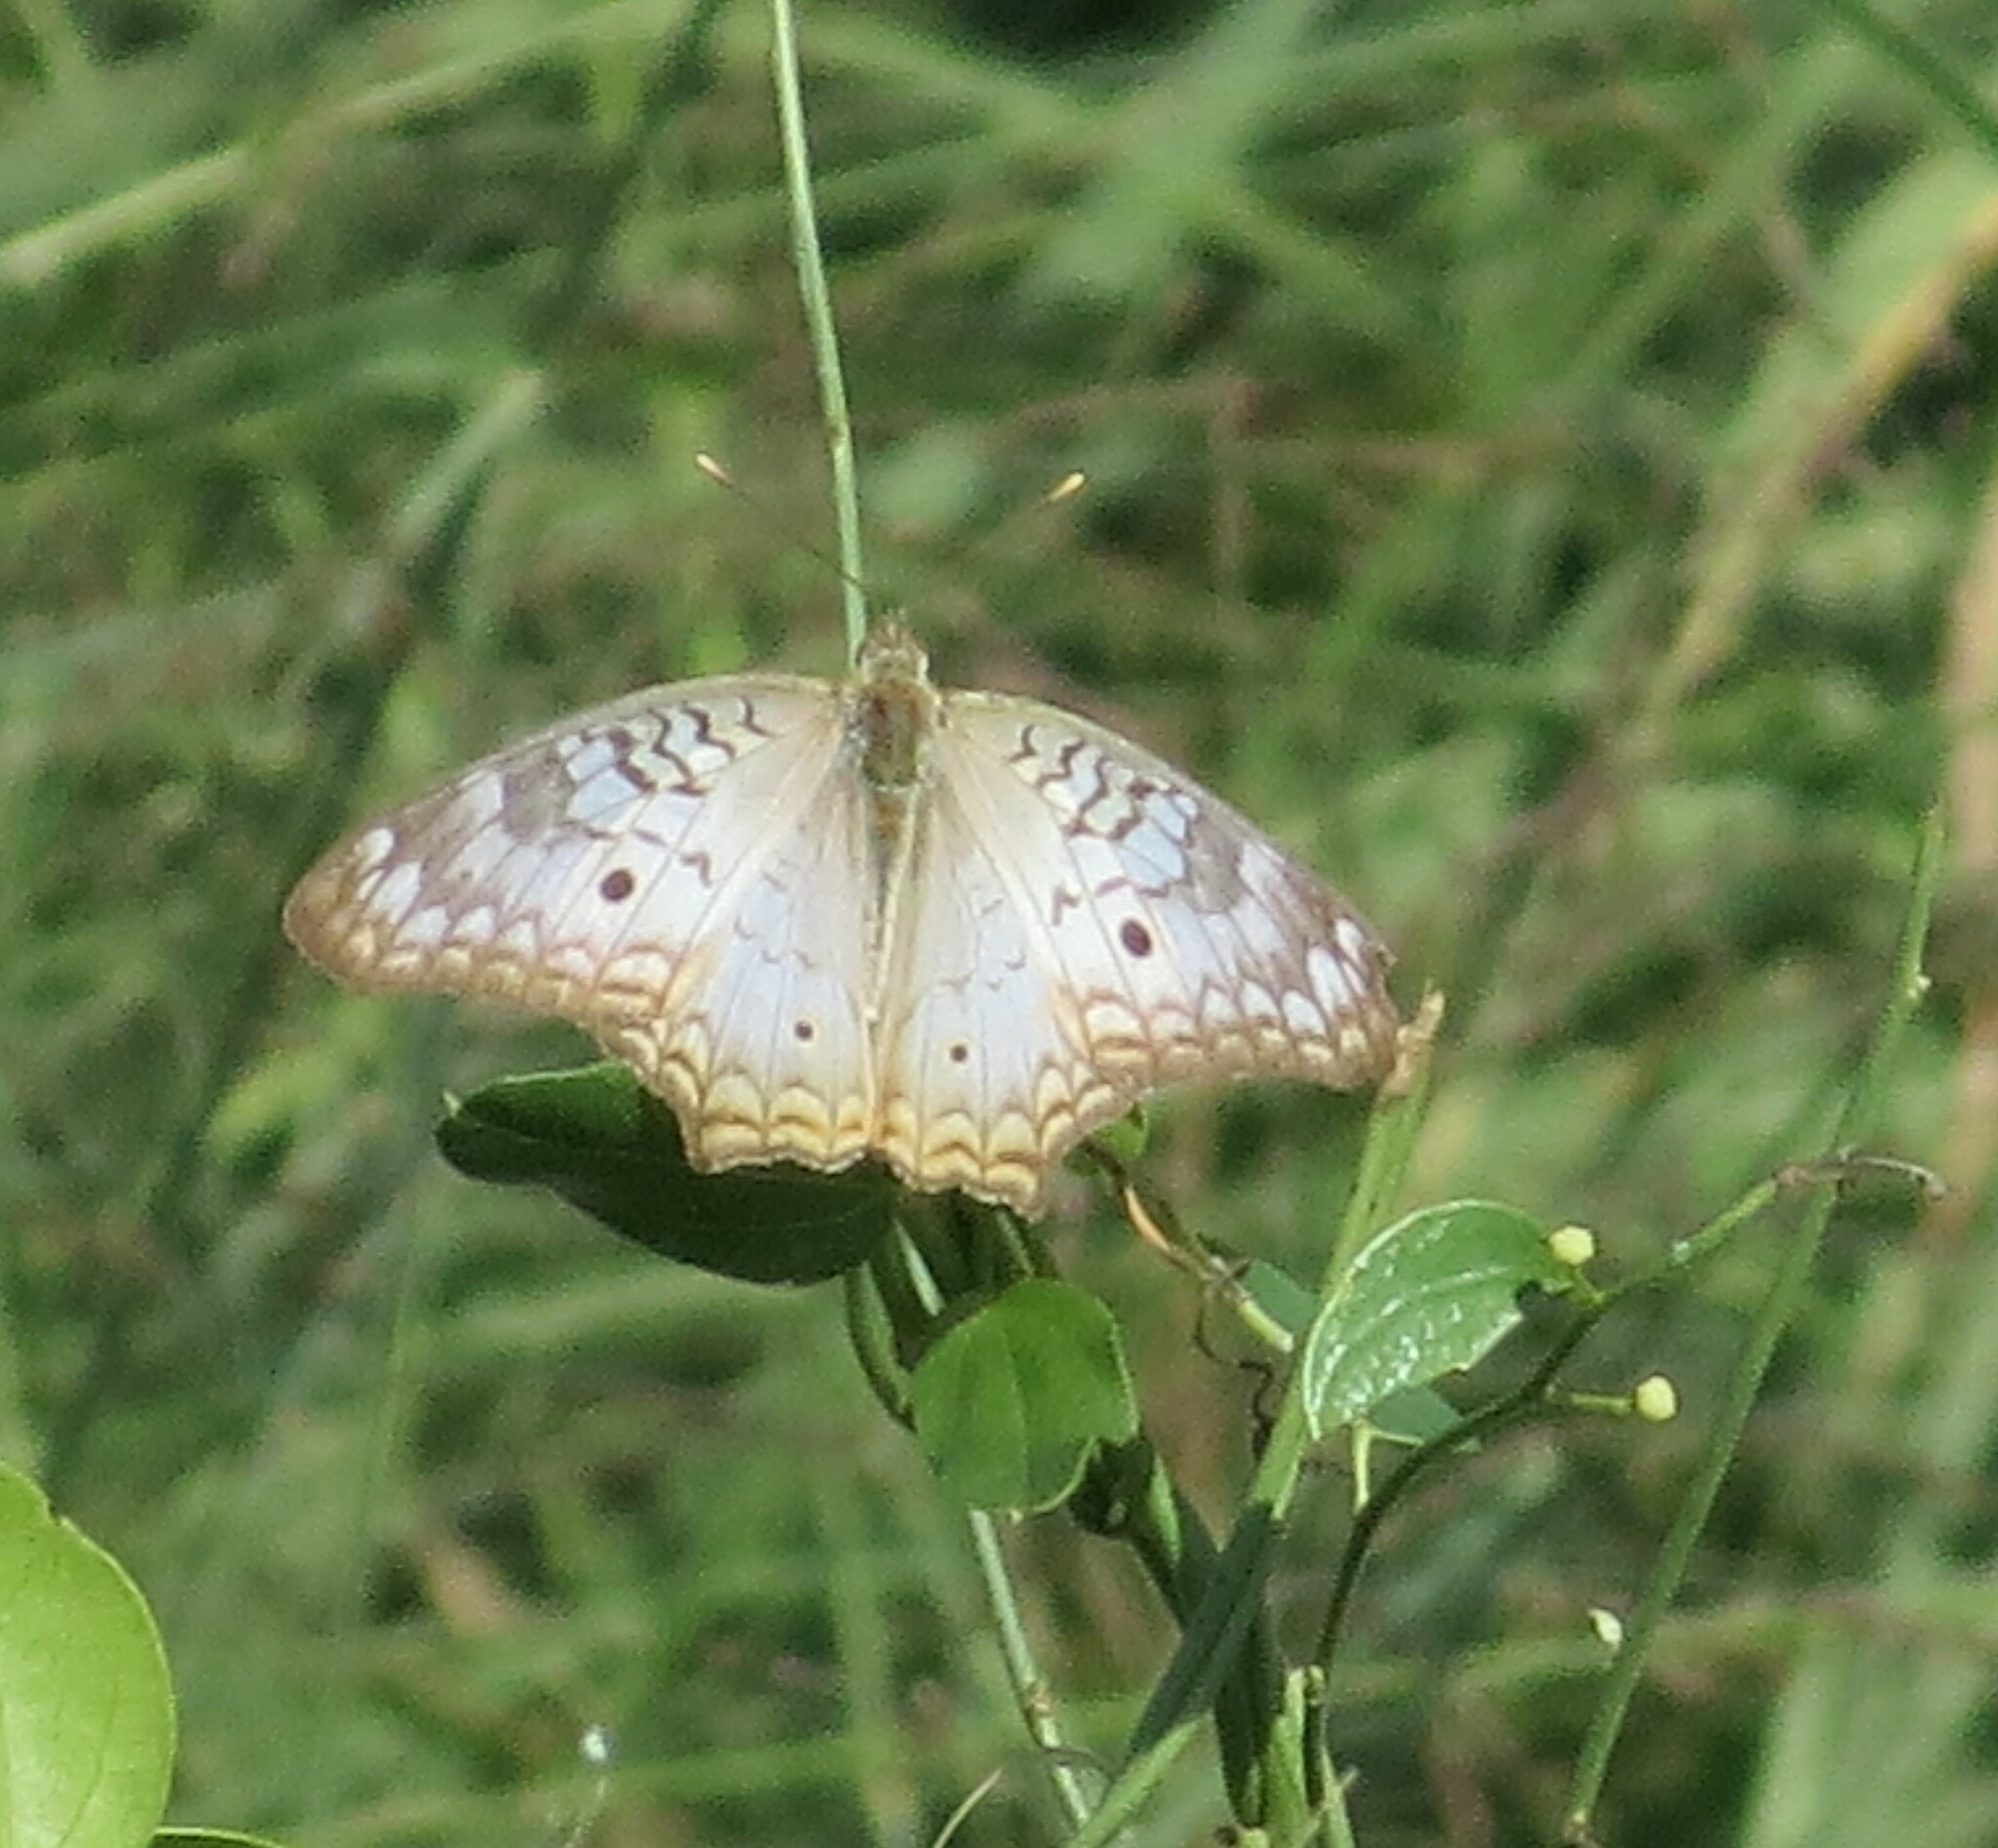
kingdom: Animalia
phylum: Arthropoda
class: Insecta
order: Lepidoptera
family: Nymphalidae
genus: Anartia
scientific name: Anartia jatrophae
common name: White peacock
